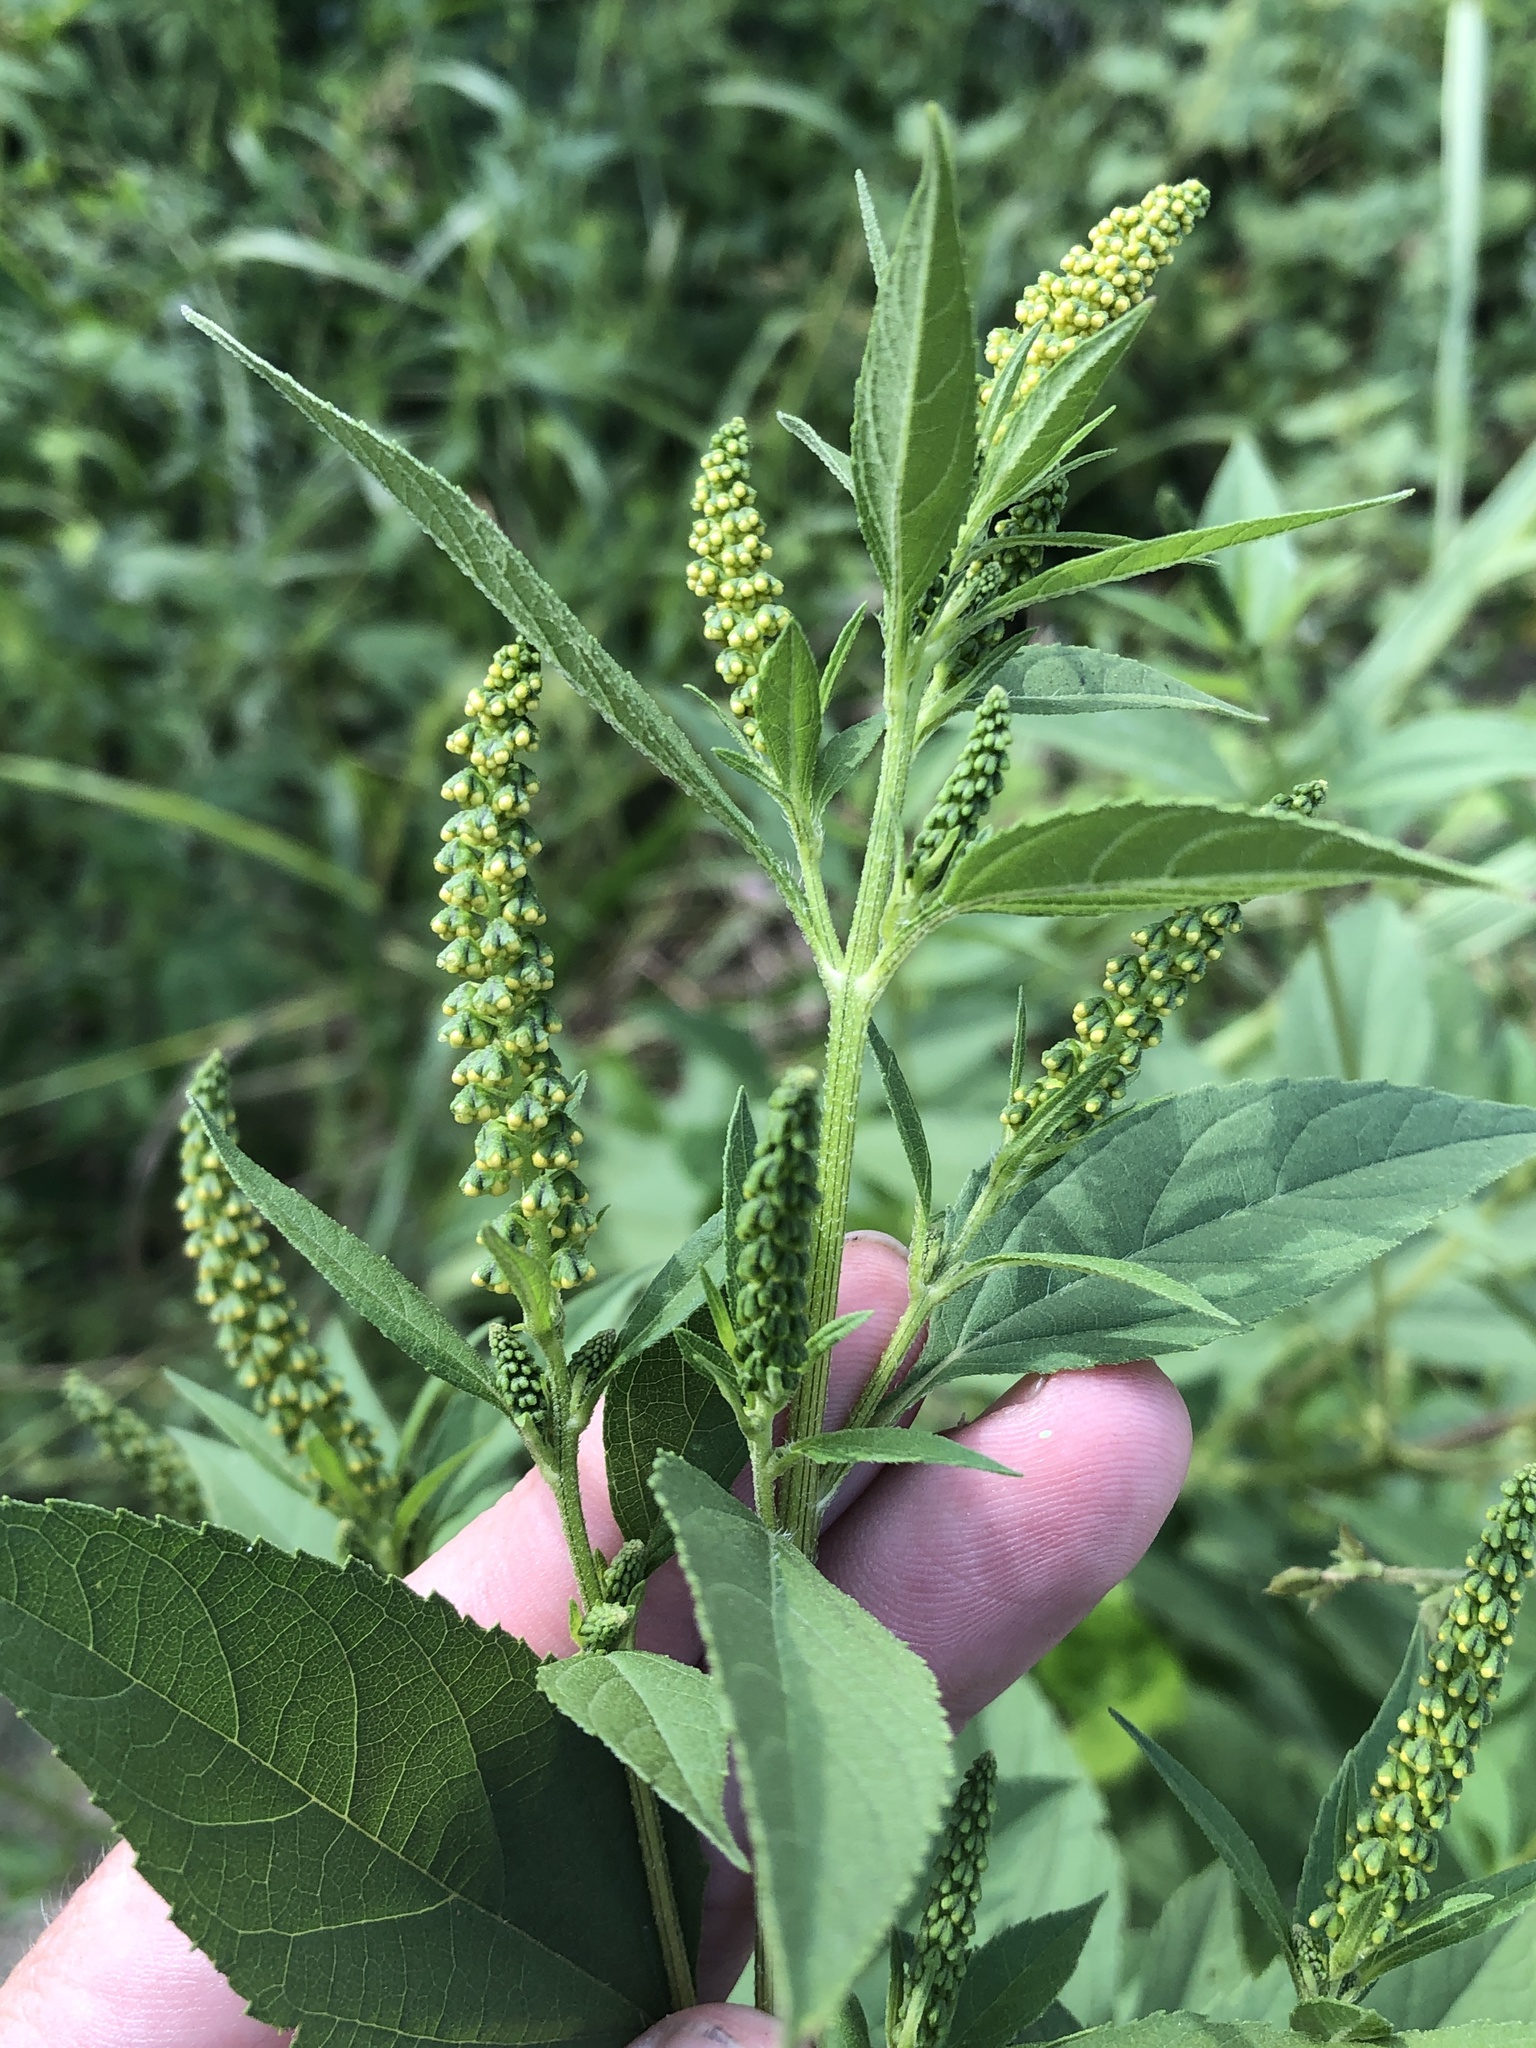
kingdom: Plantae
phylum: Tracheophyta
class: Magnoliopsida
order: Asterales
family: Asteraceae
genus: Ambrosia
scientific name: Ambrosia trifida
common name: Giant ragweed
